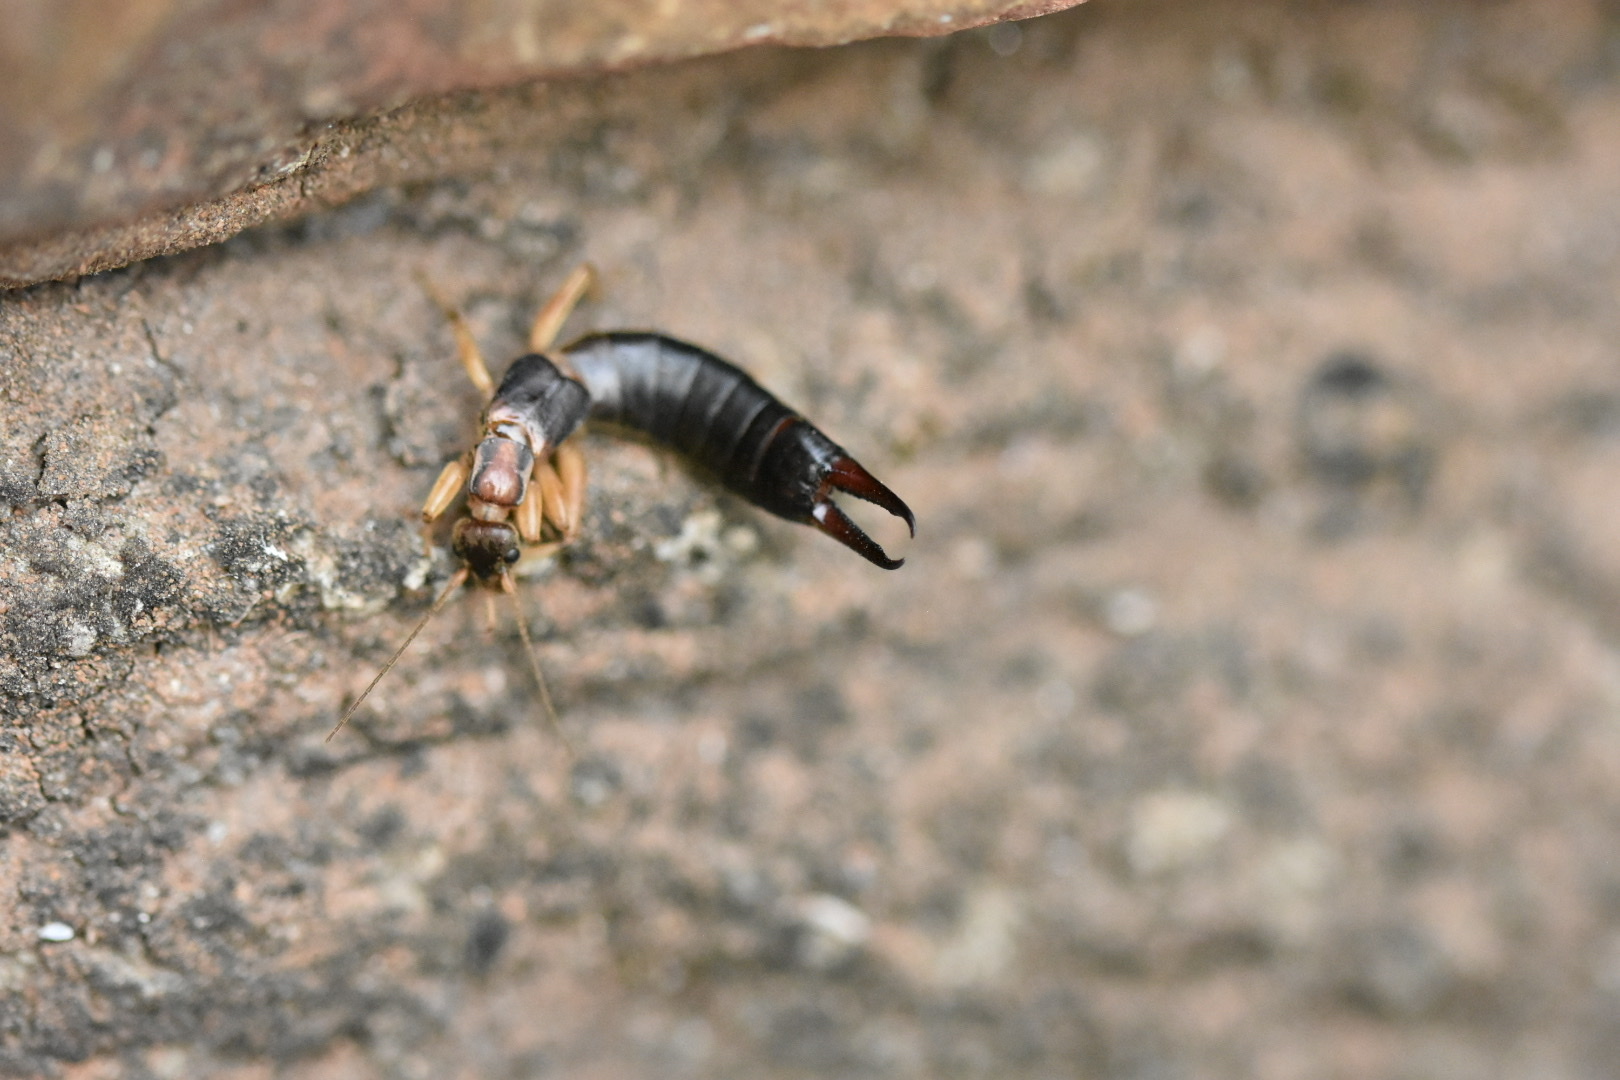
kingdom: Animalia
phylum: Arthropoda
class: Insecta
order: Dermaptera
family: Labiduridae
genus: Forcipula
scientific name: Forcipula congo
